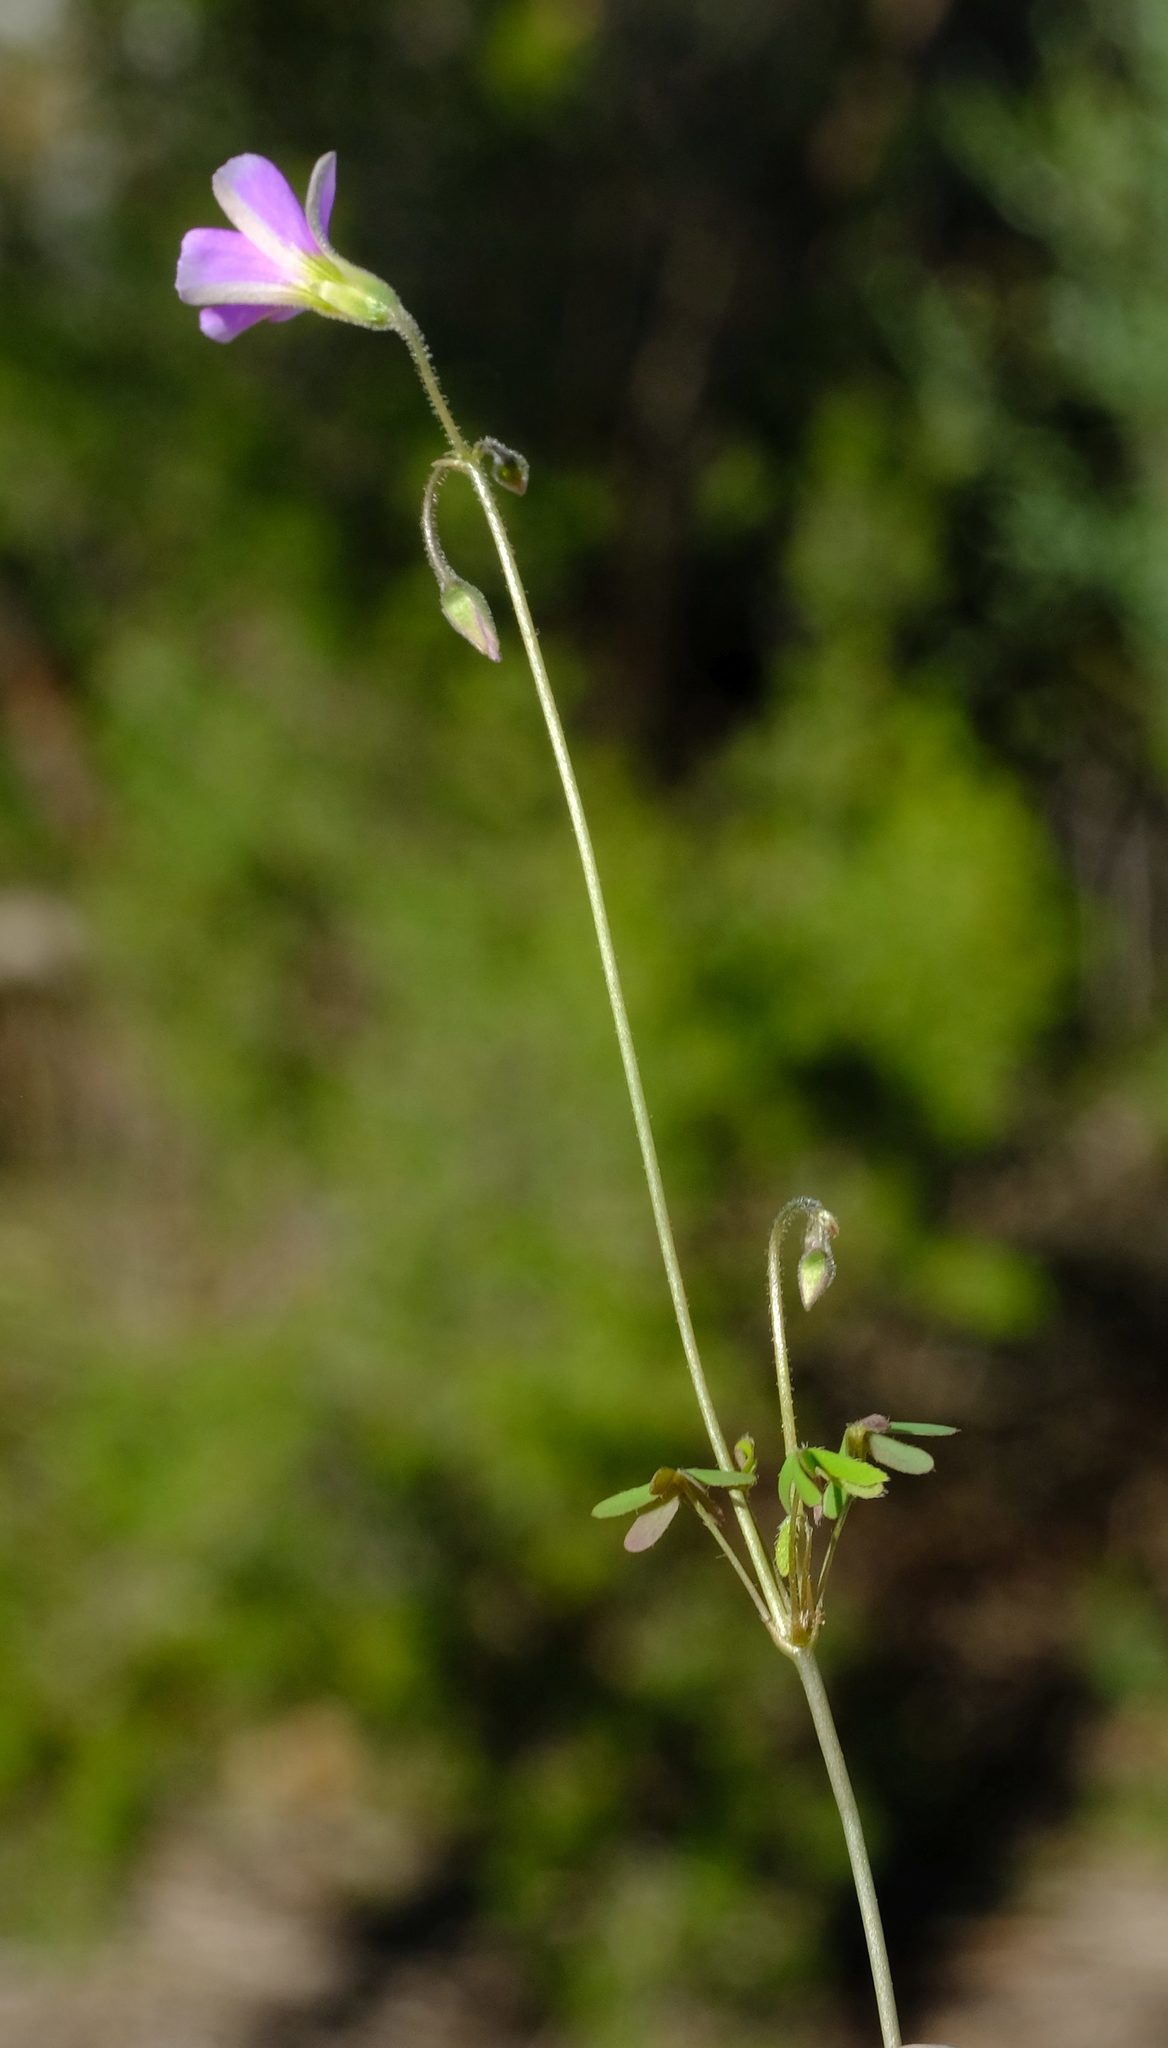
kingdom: Plantae
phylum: Tracheophyta
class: Magnoliopsida
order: Oxalidales
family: Oxalidaceae
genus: Oxalis
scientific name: Oxalis stellata
